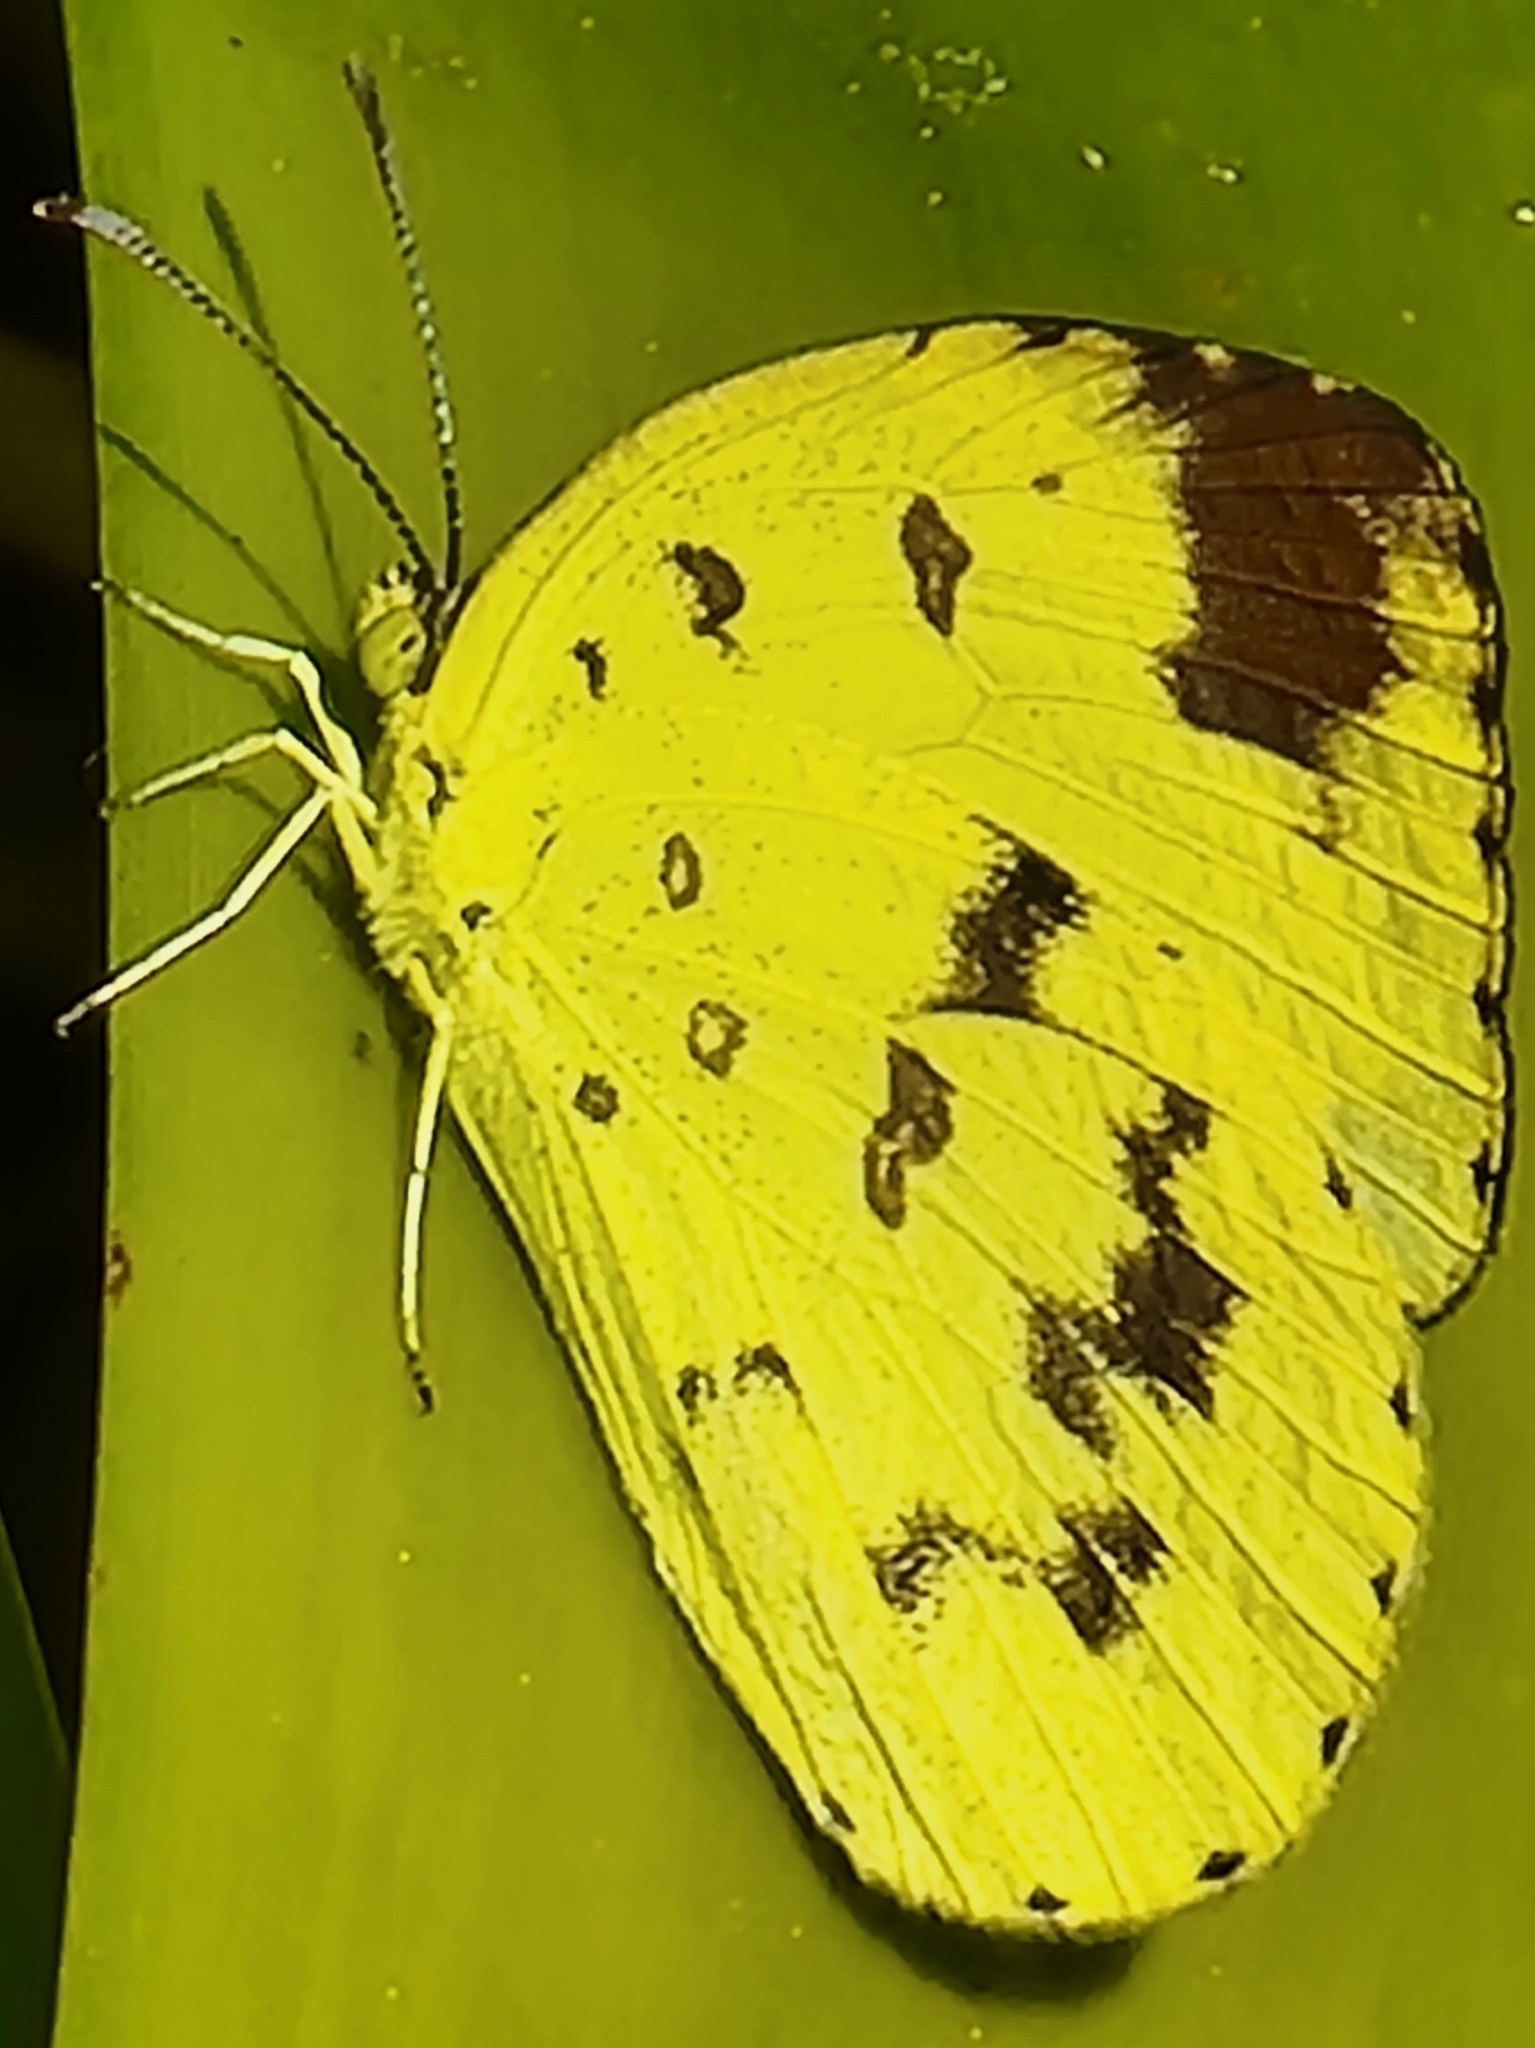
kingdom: Animalia
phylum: Arthropoda
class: Insecta
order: Lepidoptera
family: Pieridae
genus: Eurema
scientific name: Eurema hecabe
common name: Pale grass yellow
